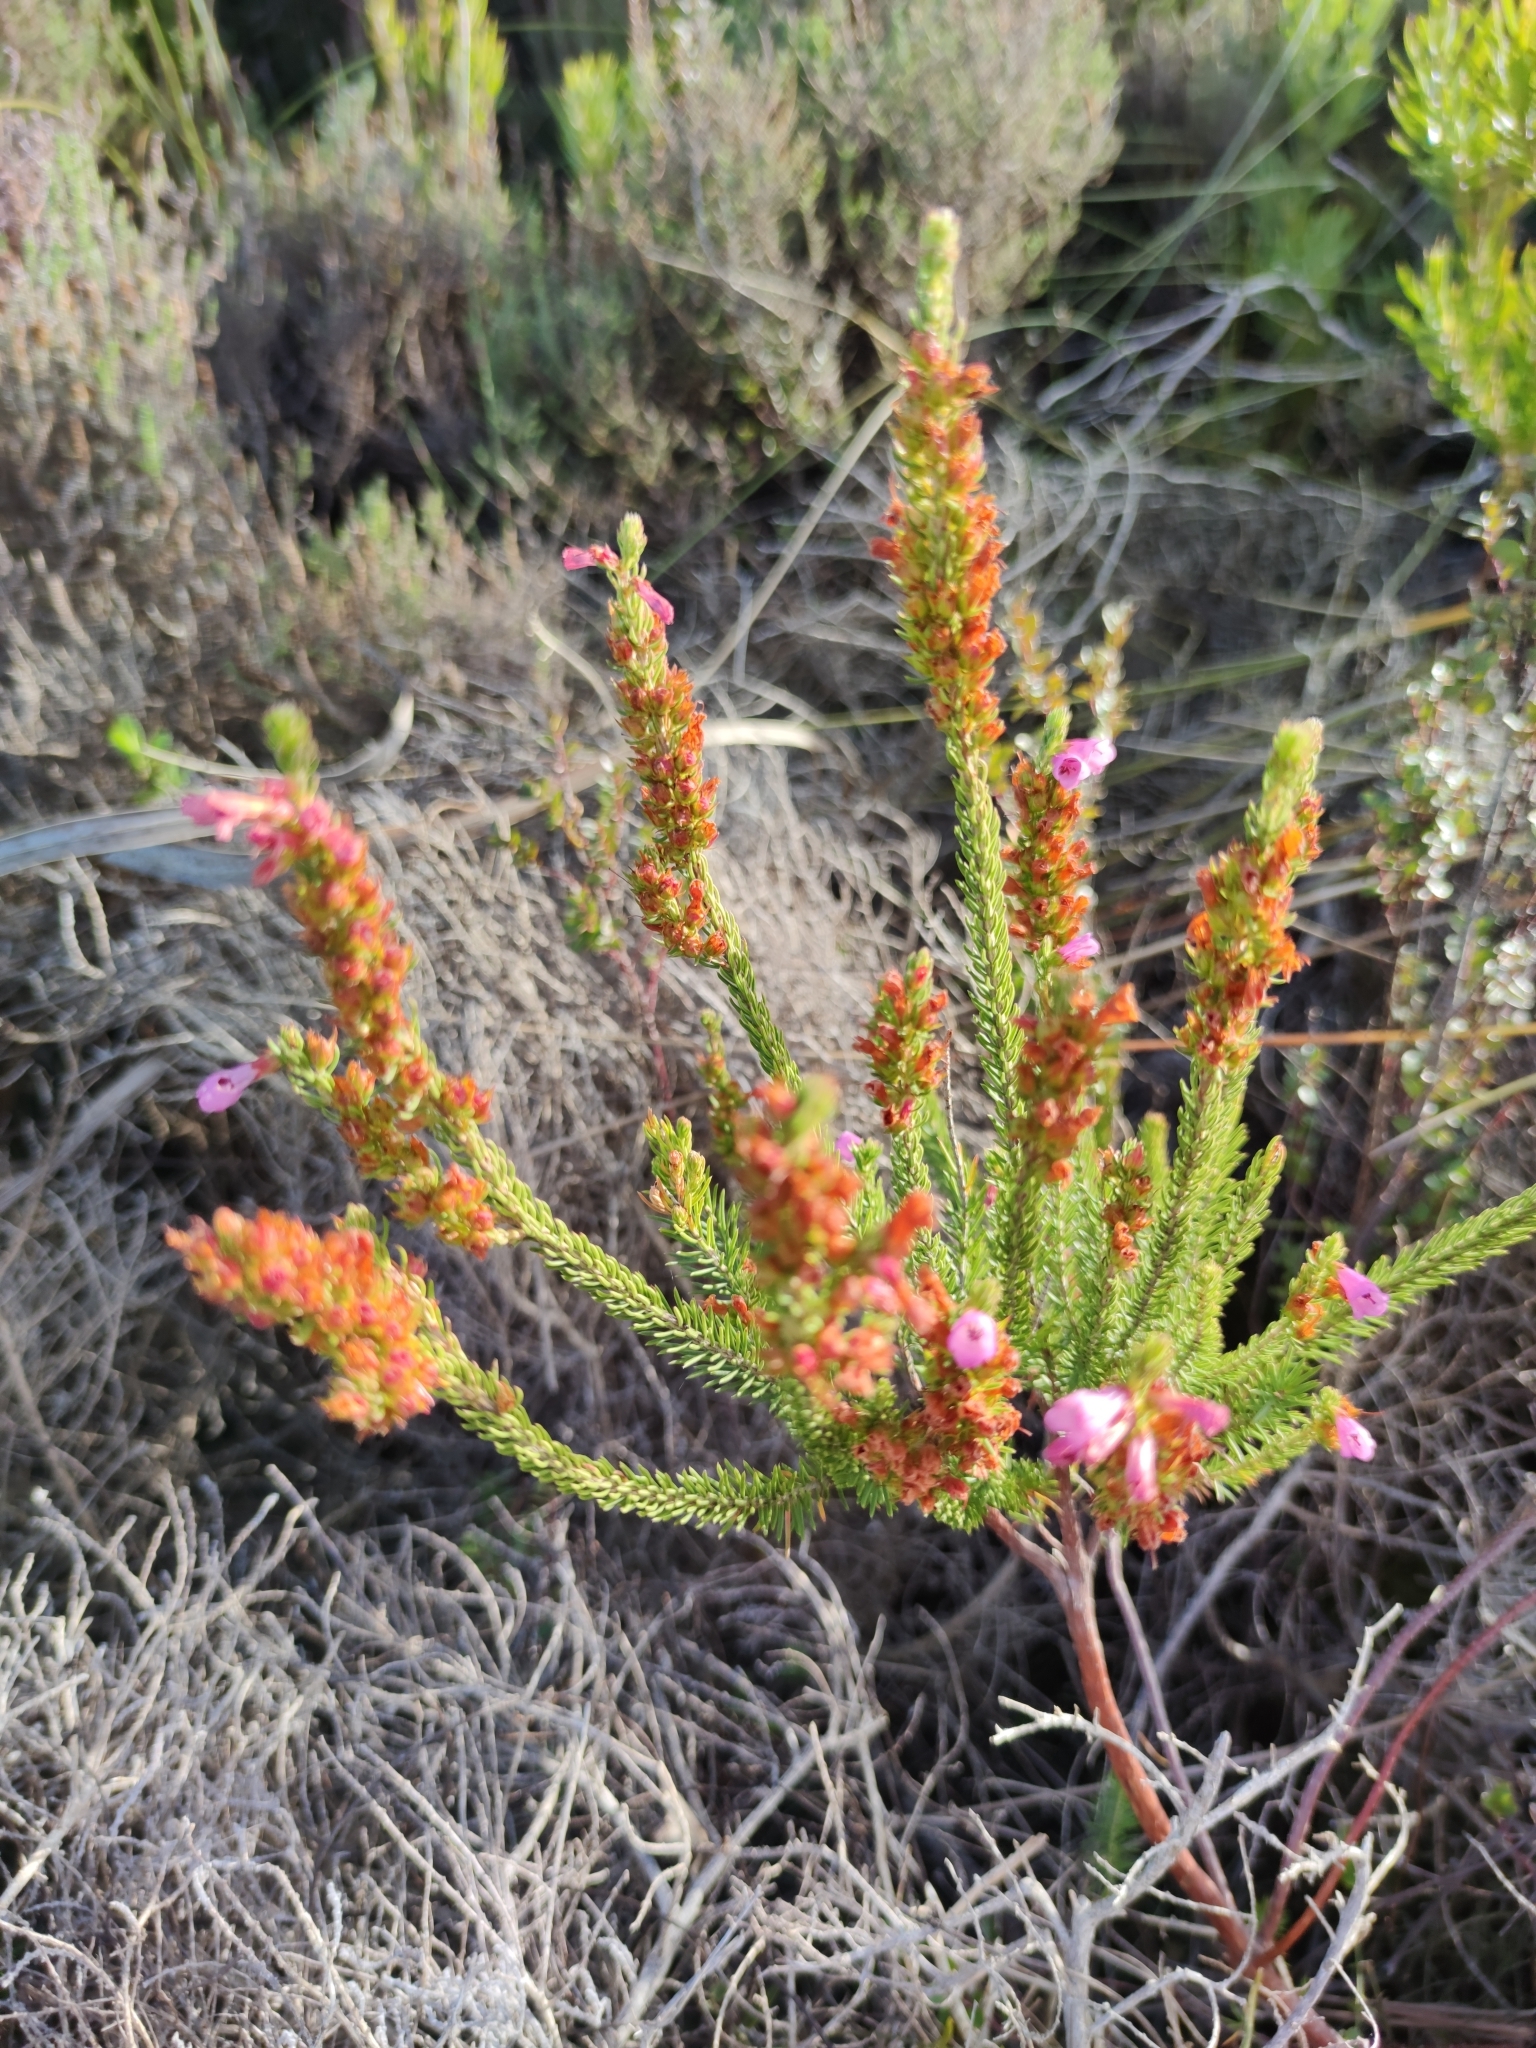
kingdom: Plantae
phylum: Tracheophyta
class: Magnoliopsida
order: Ericales
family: Ericaceae
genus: Erica
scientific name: Erica abietina
